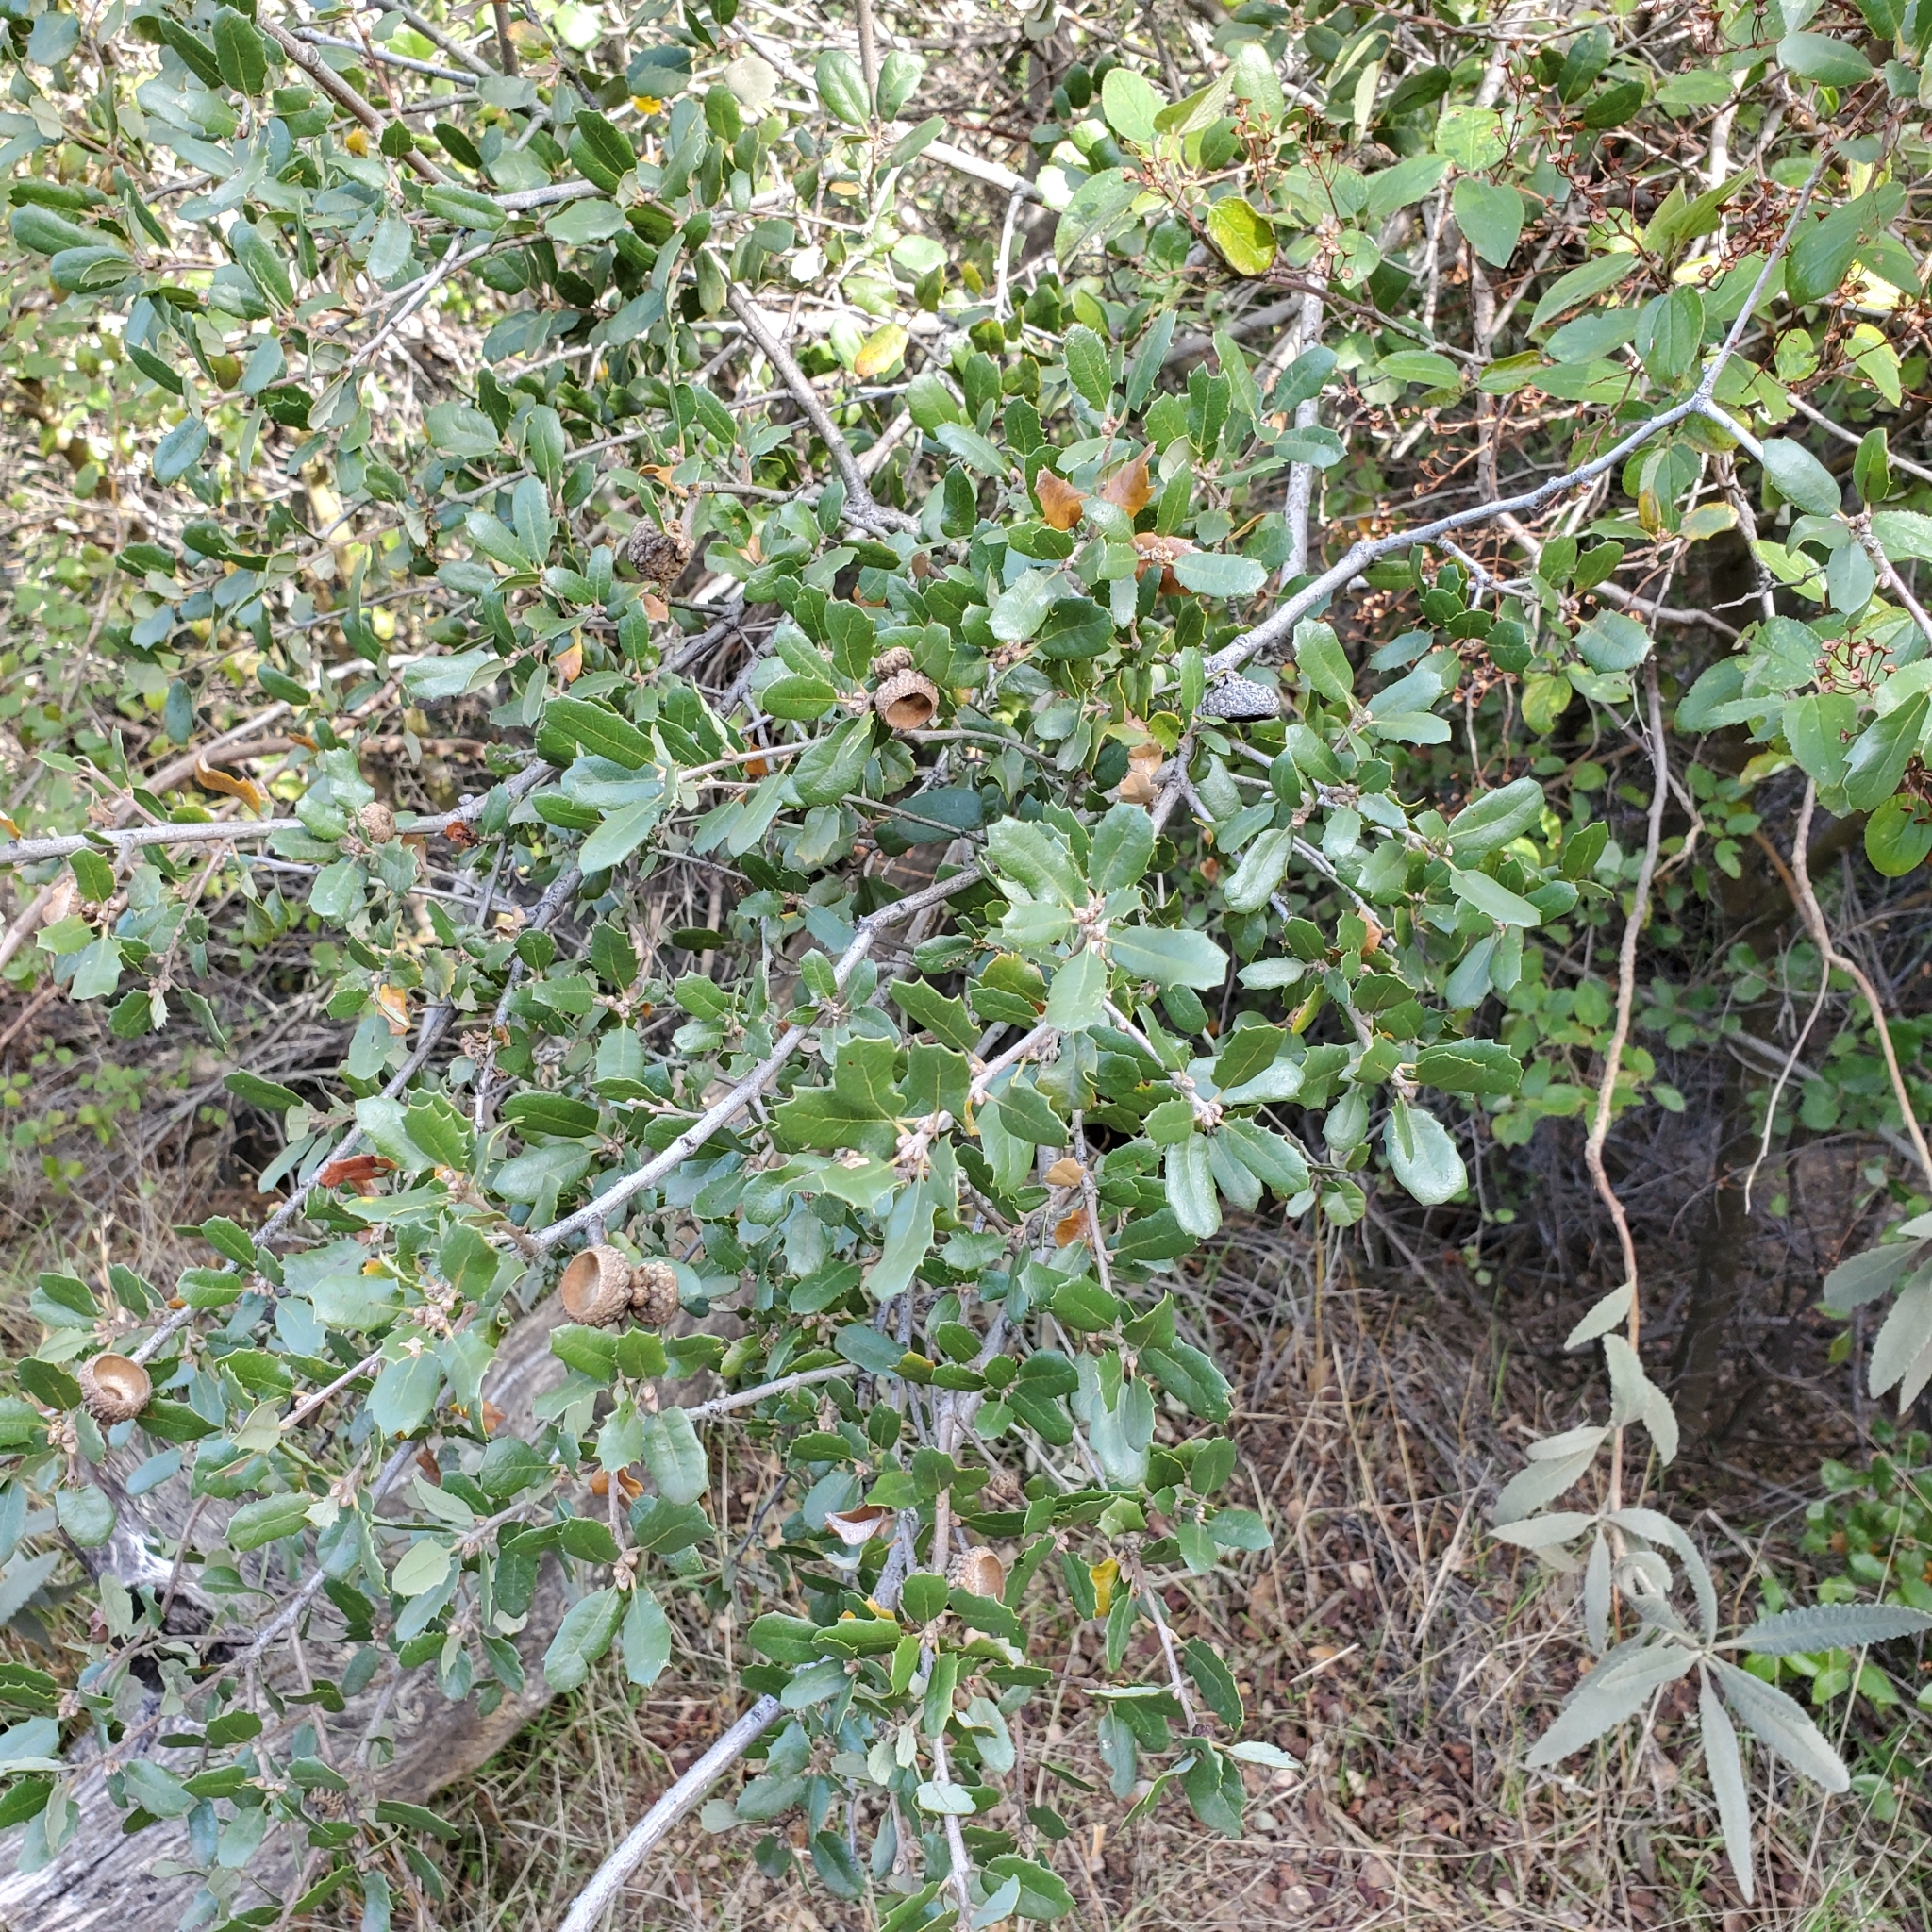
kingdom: Plantae
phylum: Tracheophyta
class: Magnoliopsida
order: Fagales
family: Fagaceae
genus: Quercus
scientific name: Quercus berberidifolia
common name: California scrub oak
